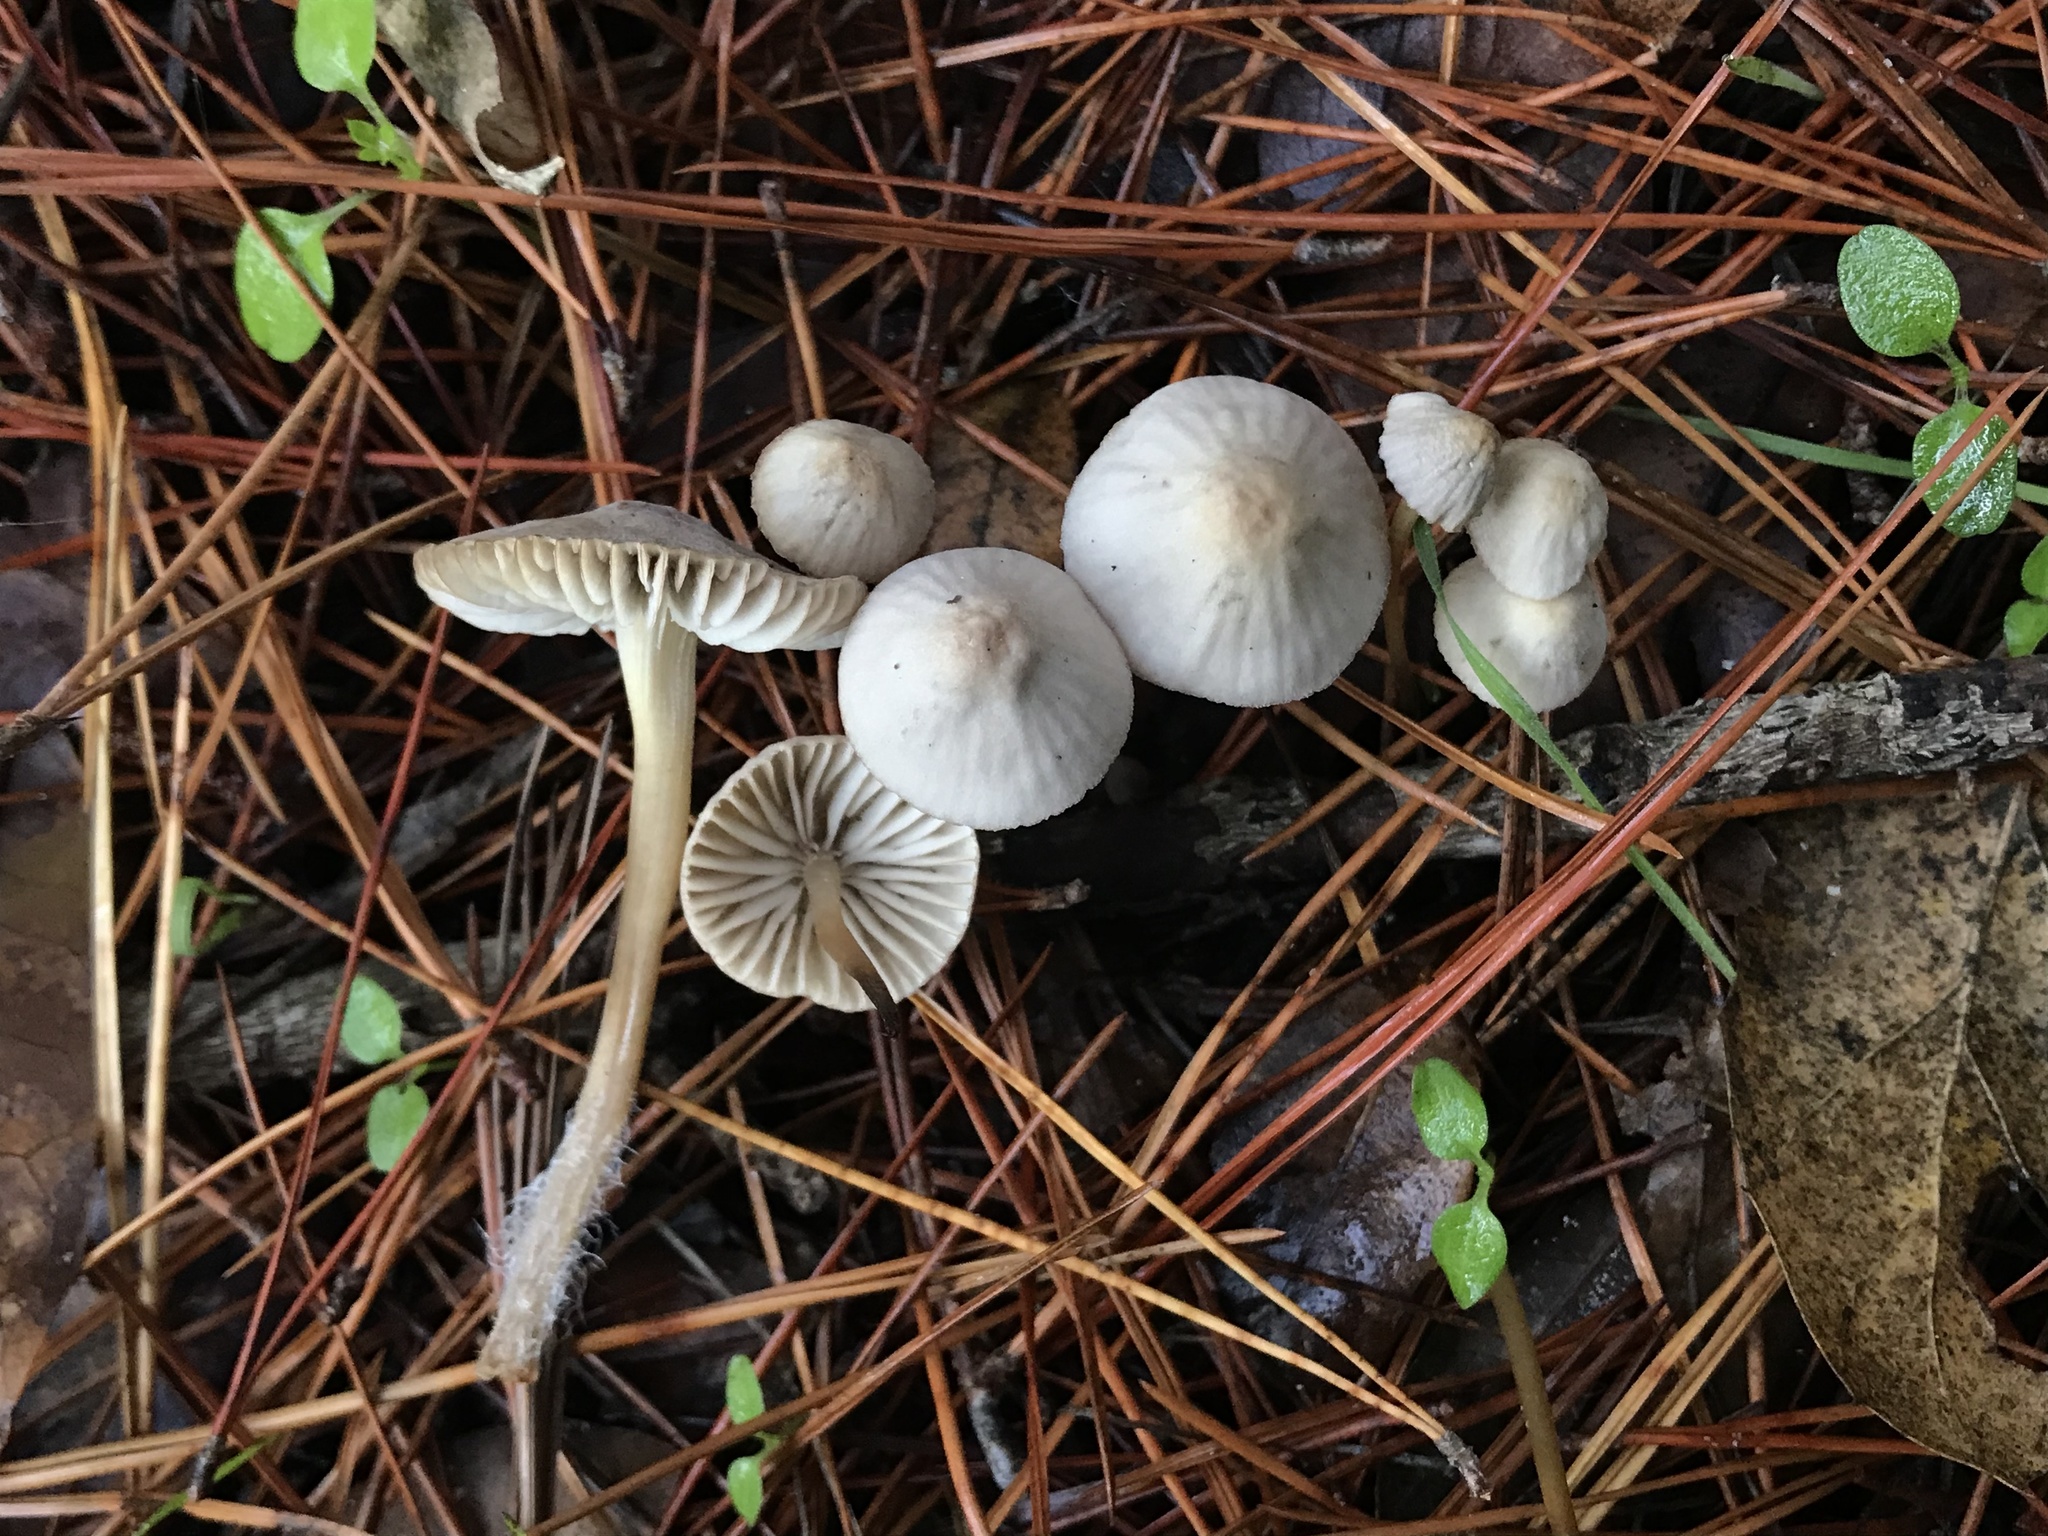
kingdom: Fungi
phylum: Basidiomycota
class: Agaricomycetes
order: Agaricales
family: Mycenaceae
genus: Mycena
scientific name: Mycena capillaripes
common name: Pinkedge bonnet
